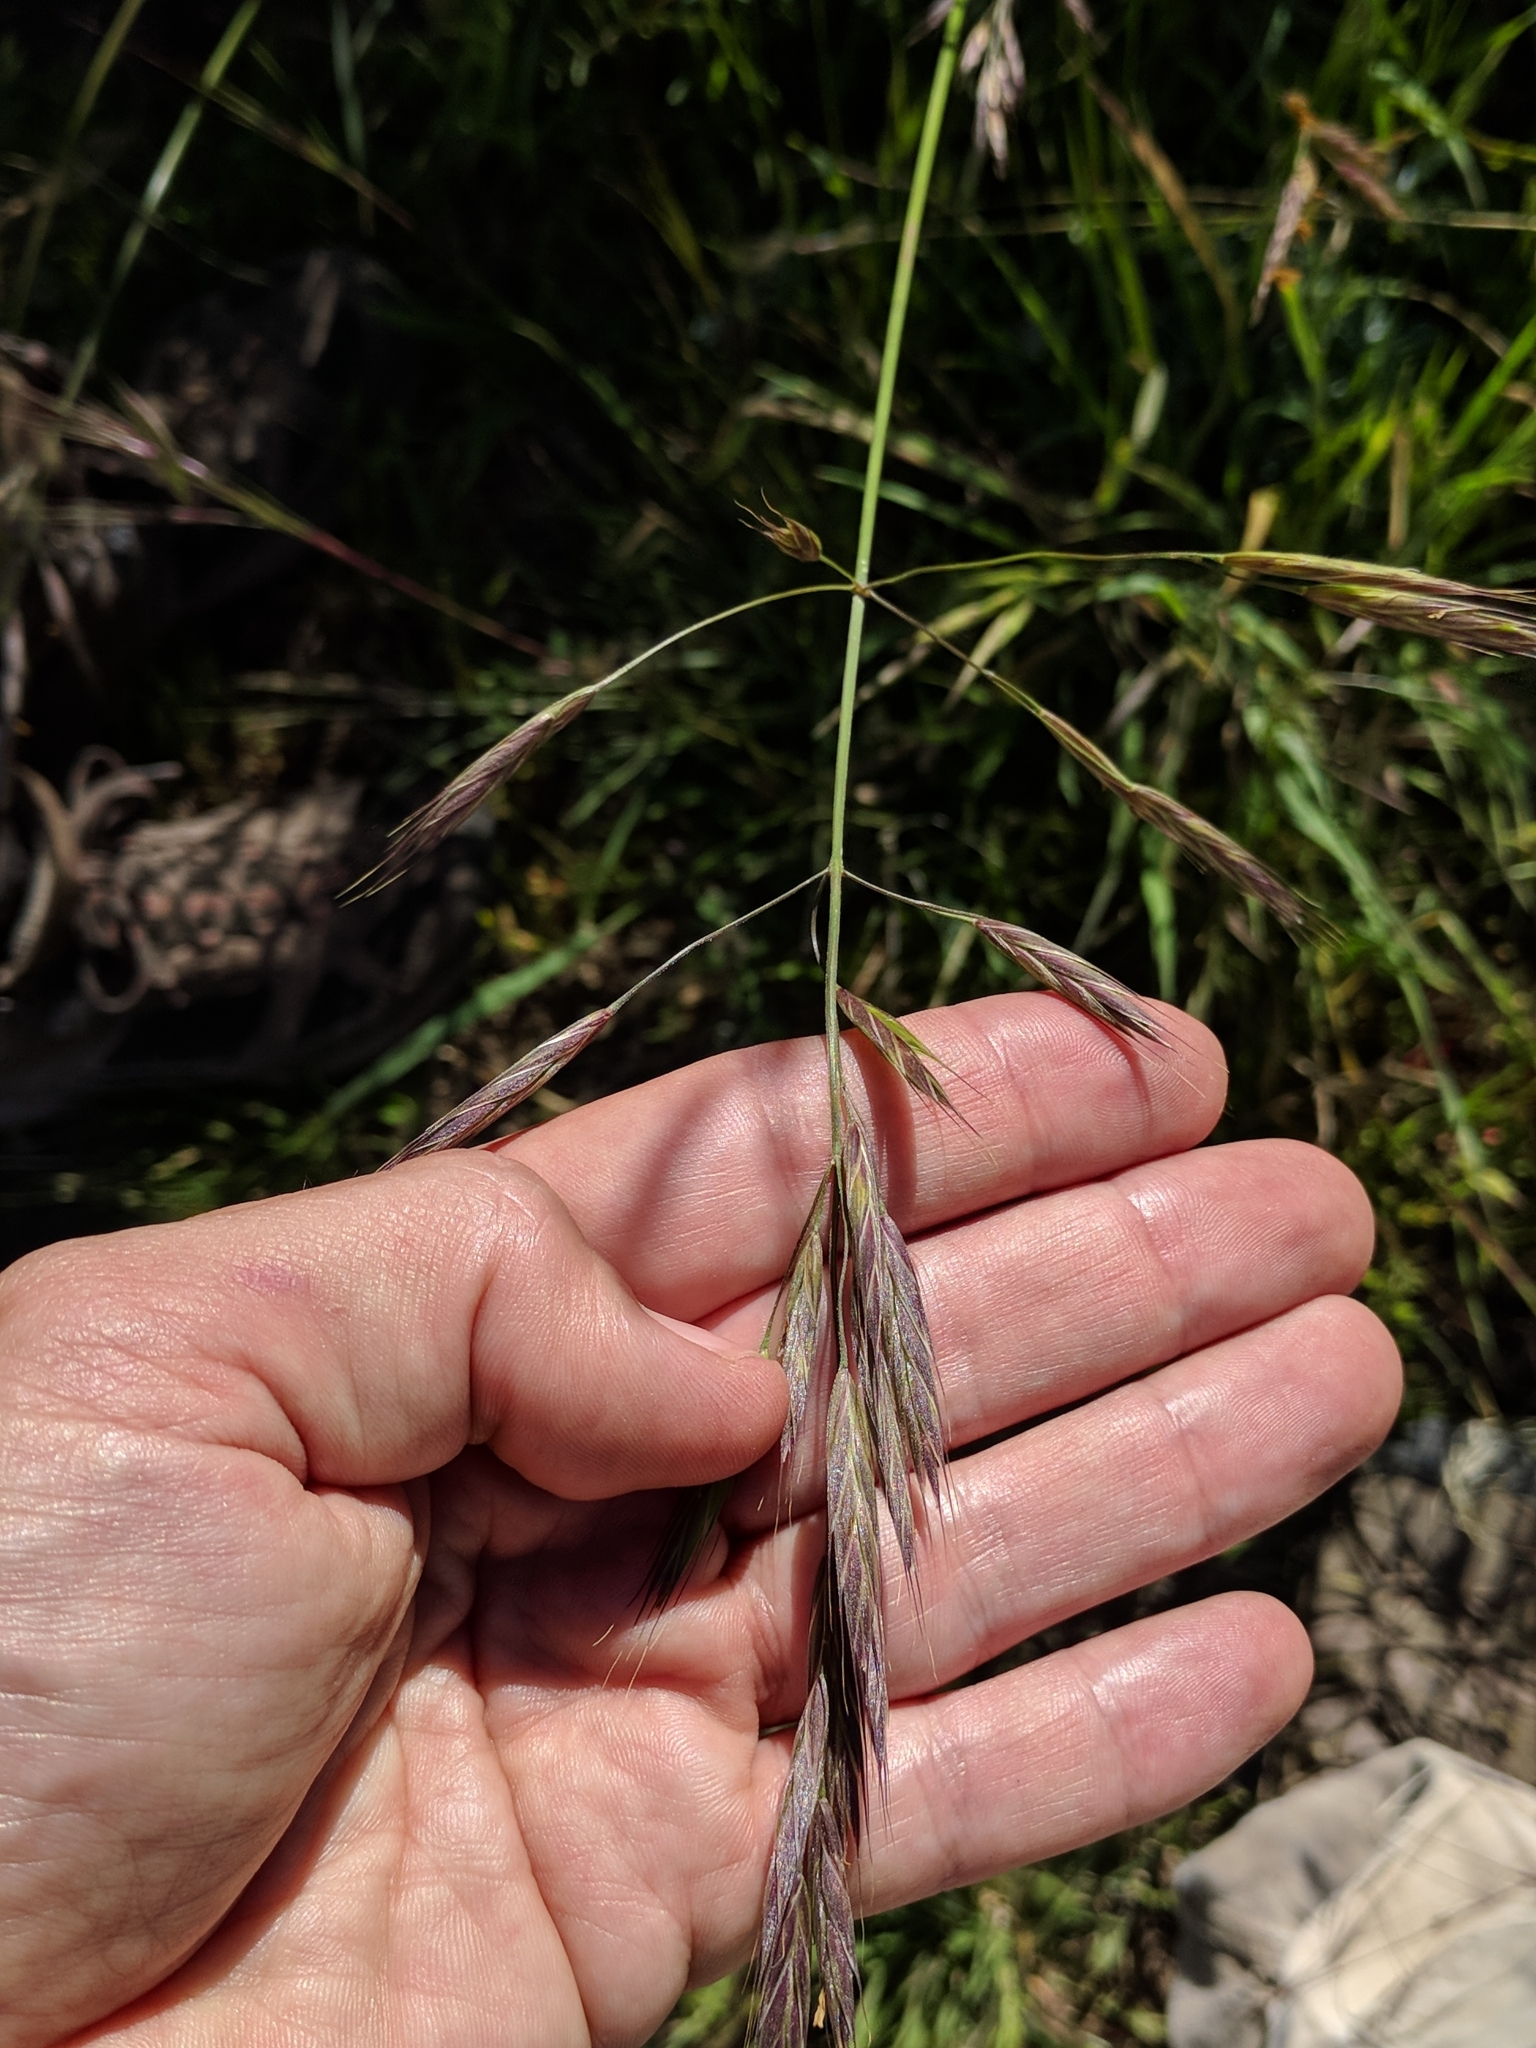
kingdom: Plantae
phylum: Tracheophyta
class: Liliopsida
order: Poales
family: Poaceae
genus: Bromus
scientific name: Bromus carinatus
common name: Mountain brome
